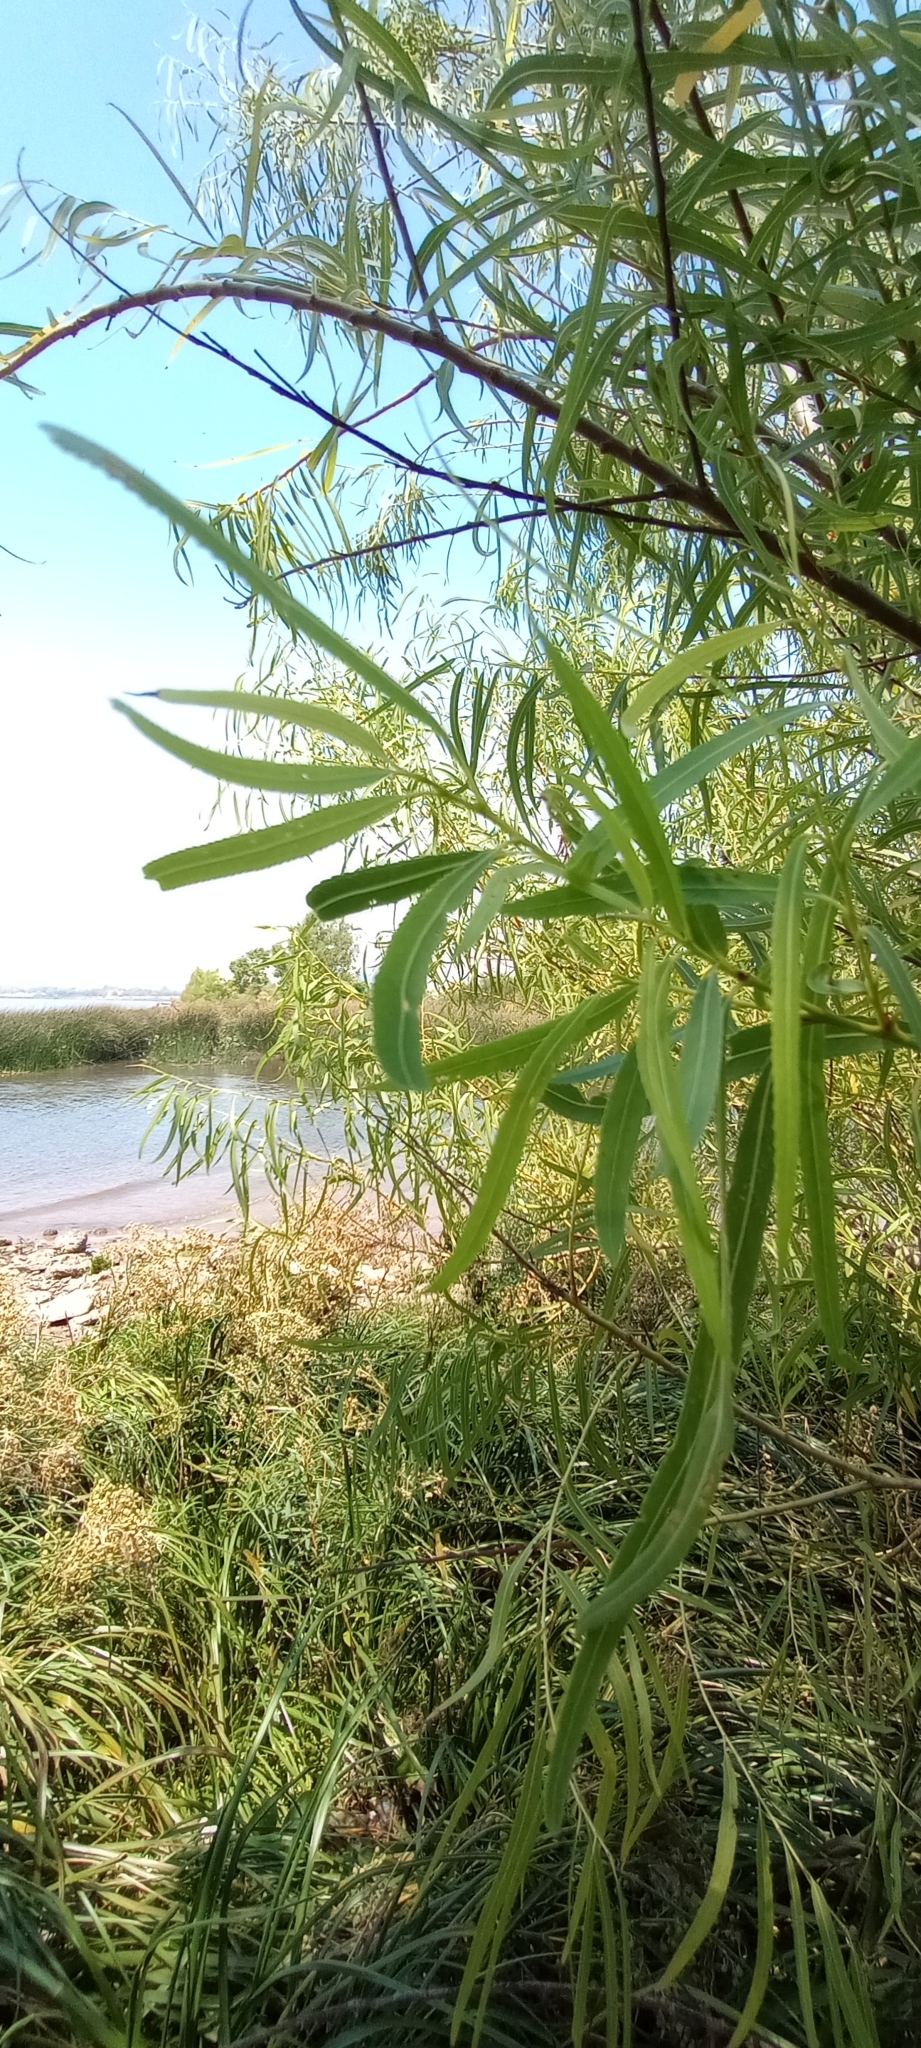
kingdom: Plantae
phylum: Tracheophyta
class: Magnoliopsida
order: Malpighiales
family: Salicaceae
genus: Salix
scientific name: Salix humboldtiana
